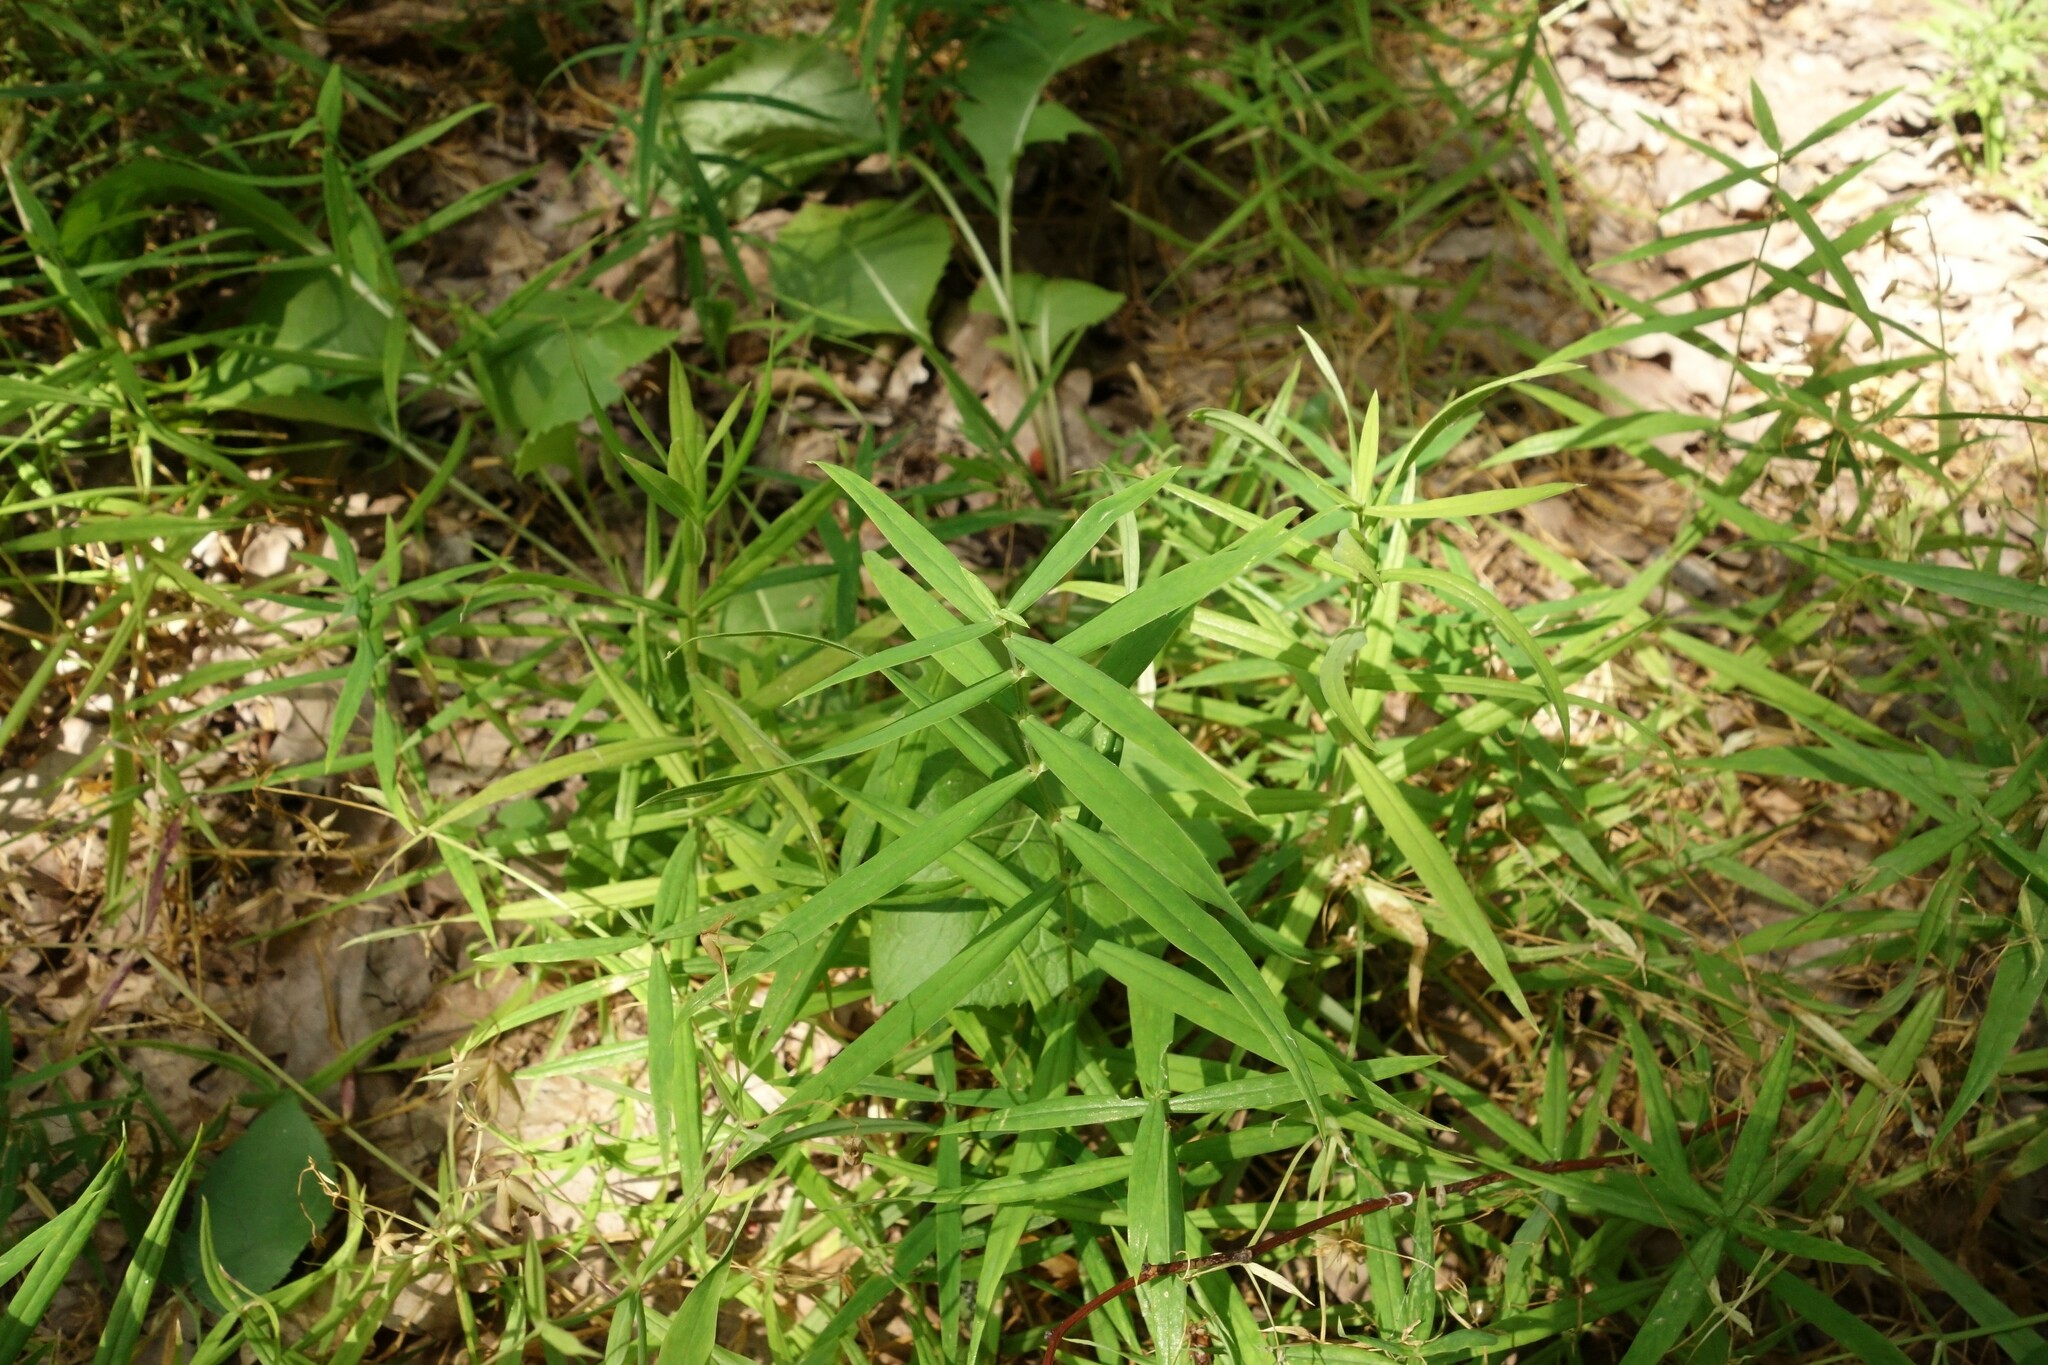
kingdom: Plantae
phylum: Tracheophyta
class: Magnoliopsida
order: Caryophyllales
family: Caryophyllaceae
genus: Rabelera
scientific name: Rabelera holostea
